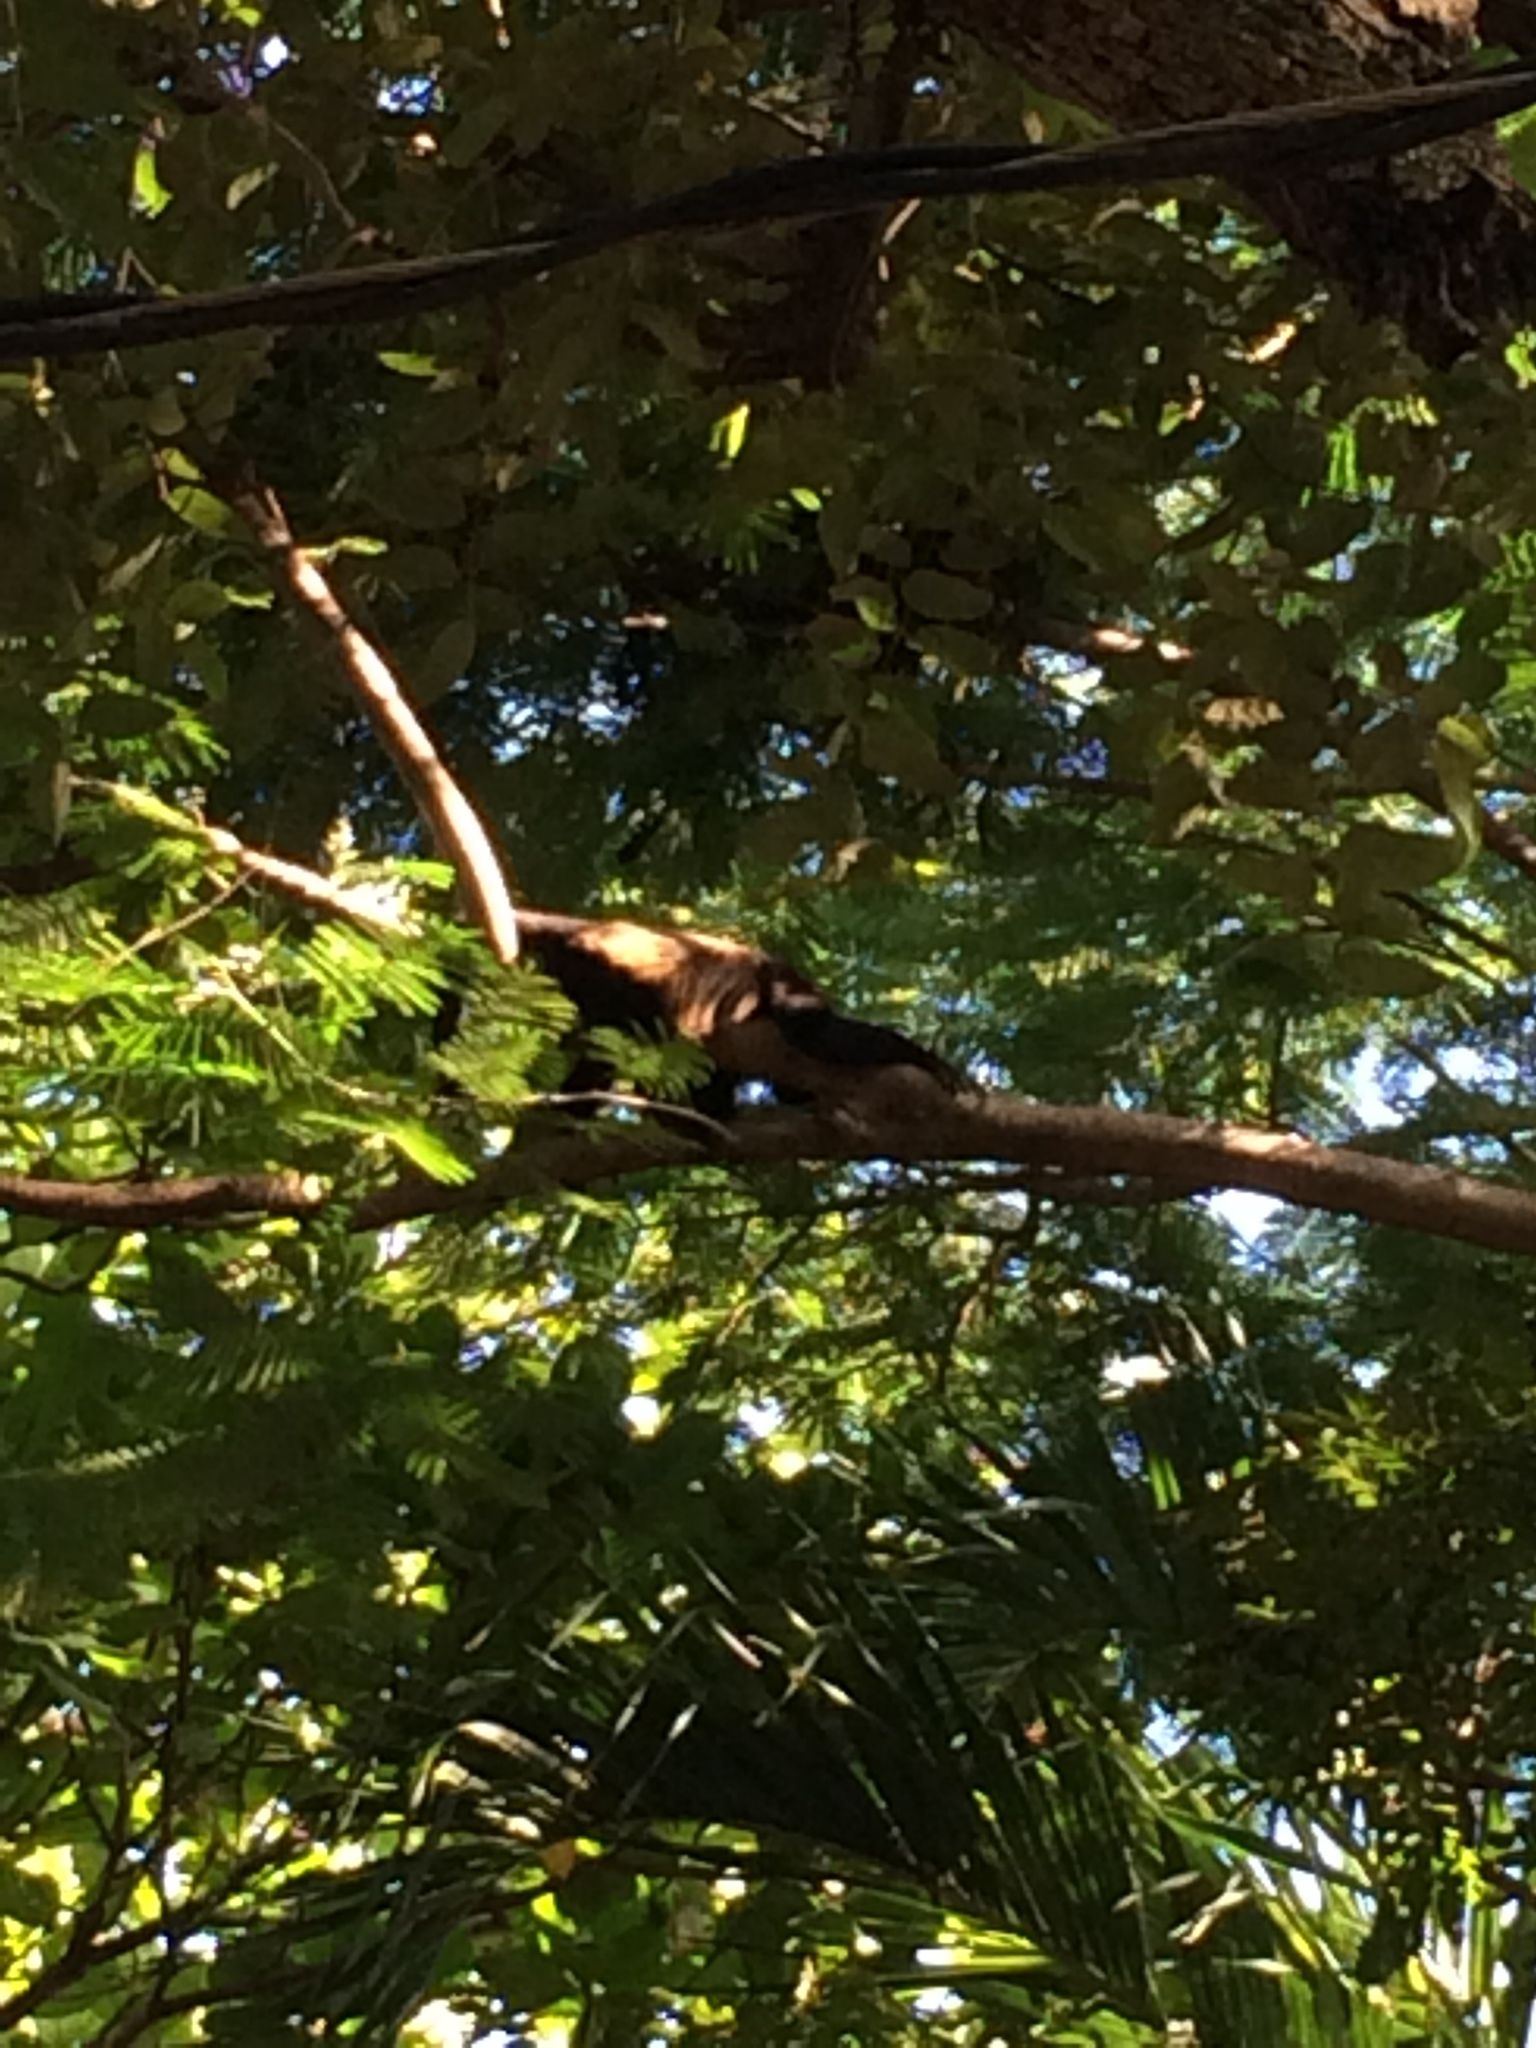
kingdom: Animalia
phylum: Chordata
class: Mammalia
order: Primates
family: Atelidae
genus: Alouatta
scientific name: Alouatta palliata
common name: Mantled howler
